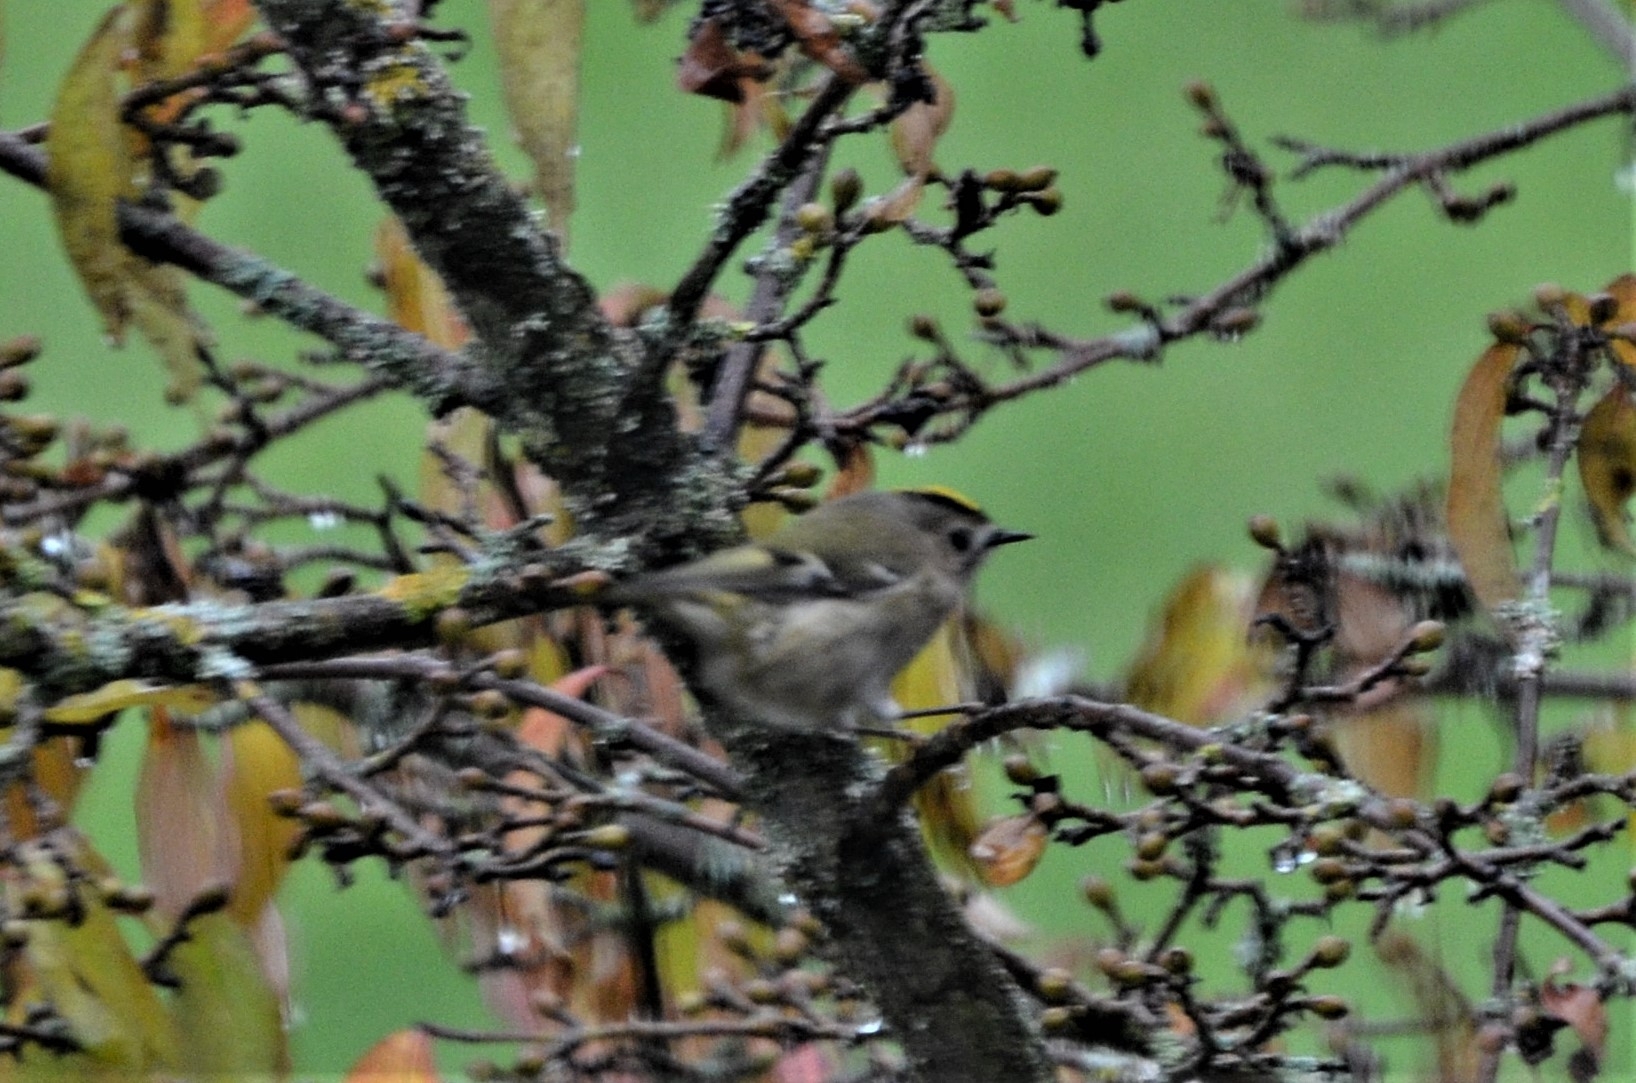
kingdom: Animalia
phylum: Chordata
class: Aves
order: Passeriformes
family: Regulidae
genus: Regulus
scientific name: Regulus regulus
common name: Goldcrest
